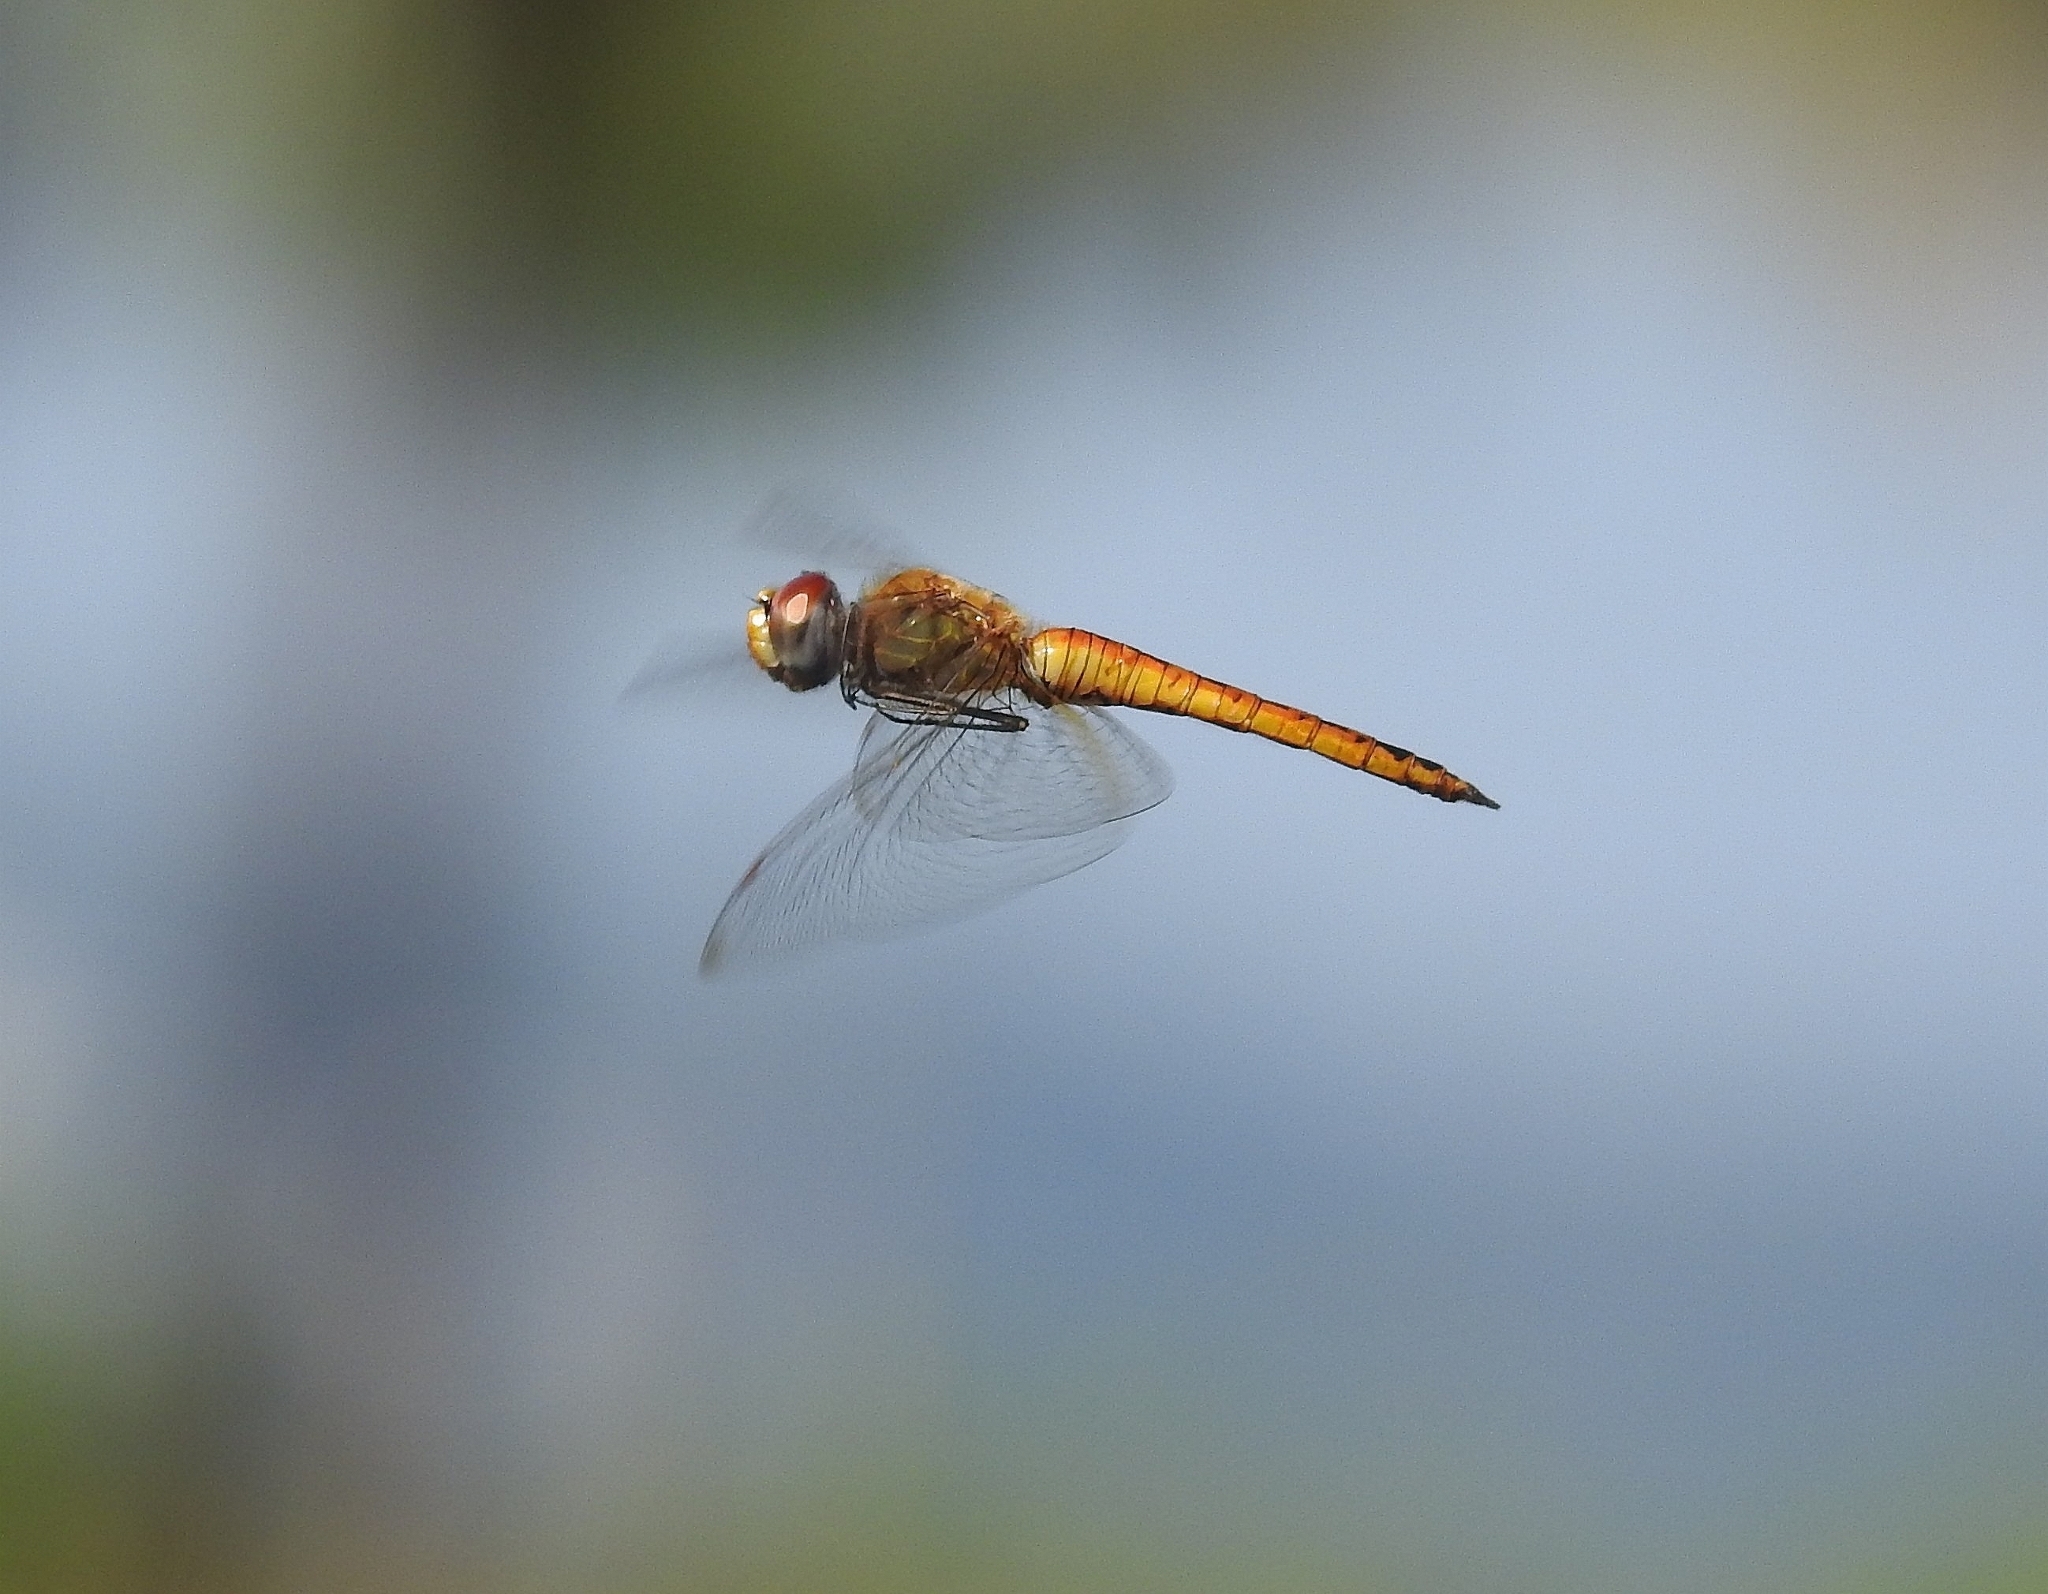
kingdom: Animalia
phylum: Arthropoda
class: Insecta
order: Odonata
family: Libellulidae
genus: Pantala
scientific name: Pantala flavescens
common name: Wandering glider
